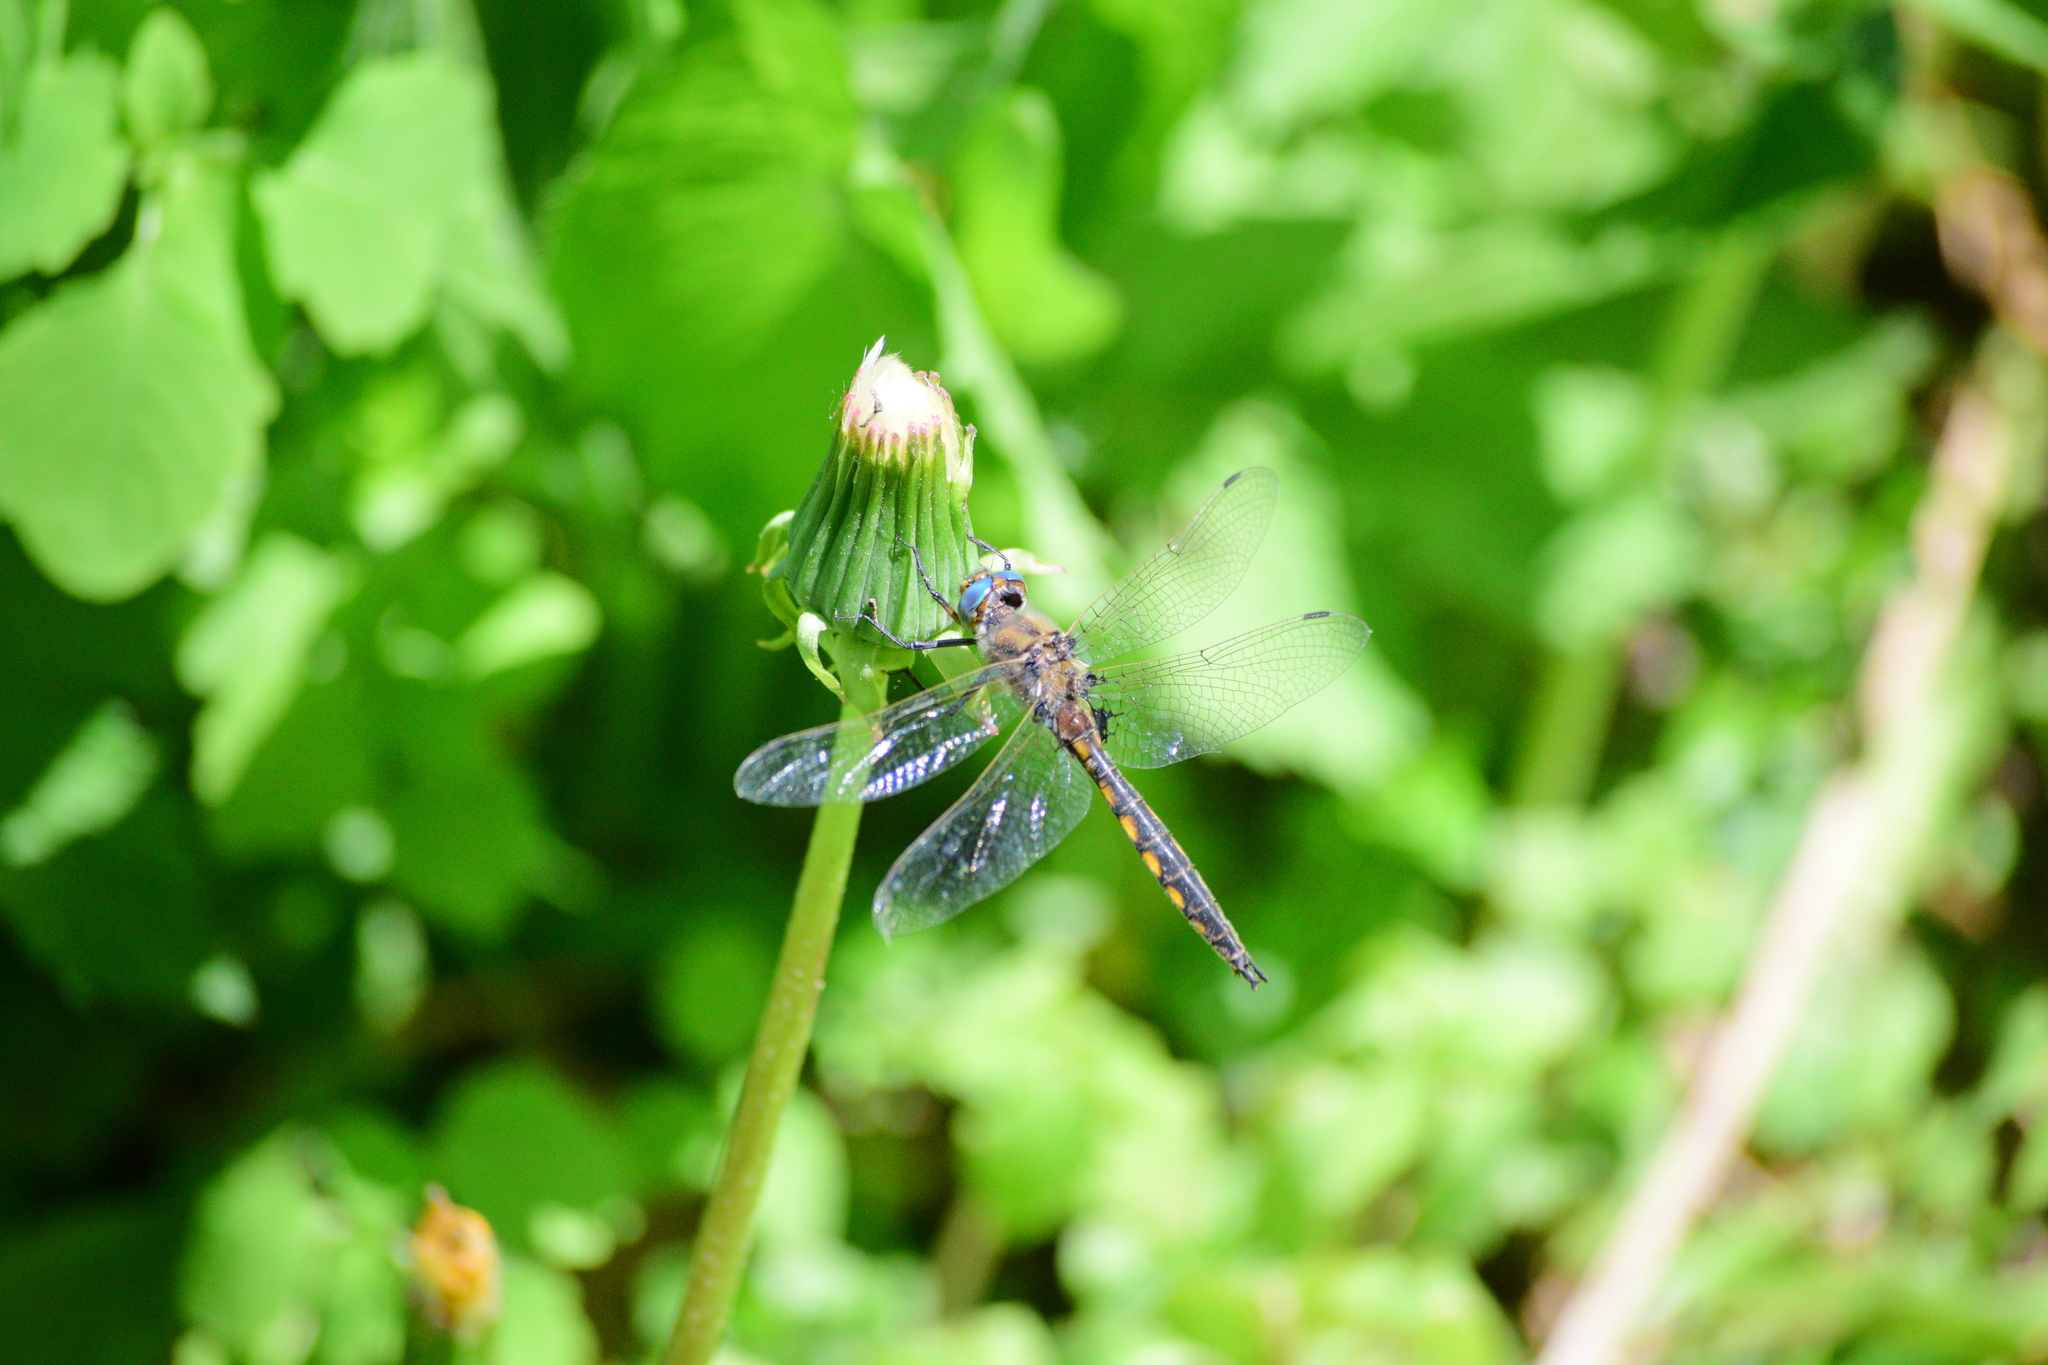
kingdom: Animalia
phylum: Arthropoda
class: Insecta
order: Odonata
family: Corduliidae
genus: Epitheca
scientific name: Epitheca canis
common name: Beaverpond baskettail
